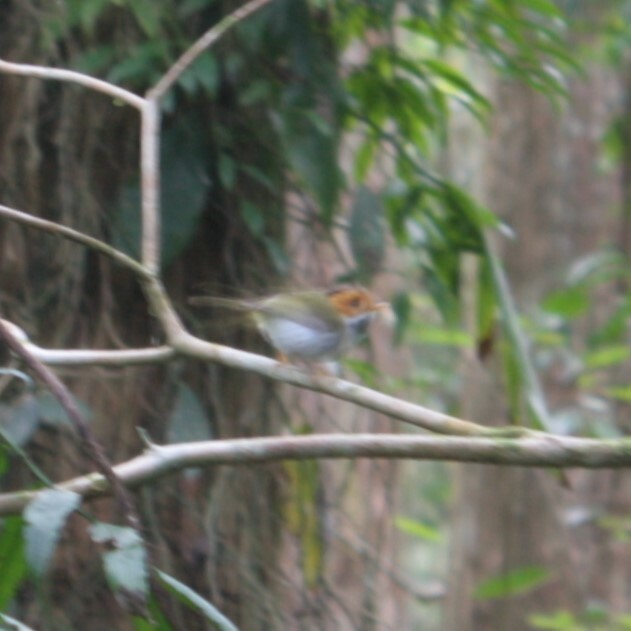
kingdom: Animalia
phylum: Chordata
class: Aves
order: Passeriformes
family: Cettiidae
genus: Abroscopus
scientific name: Abroscopus albogularis
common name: Rufous-faced warbler
